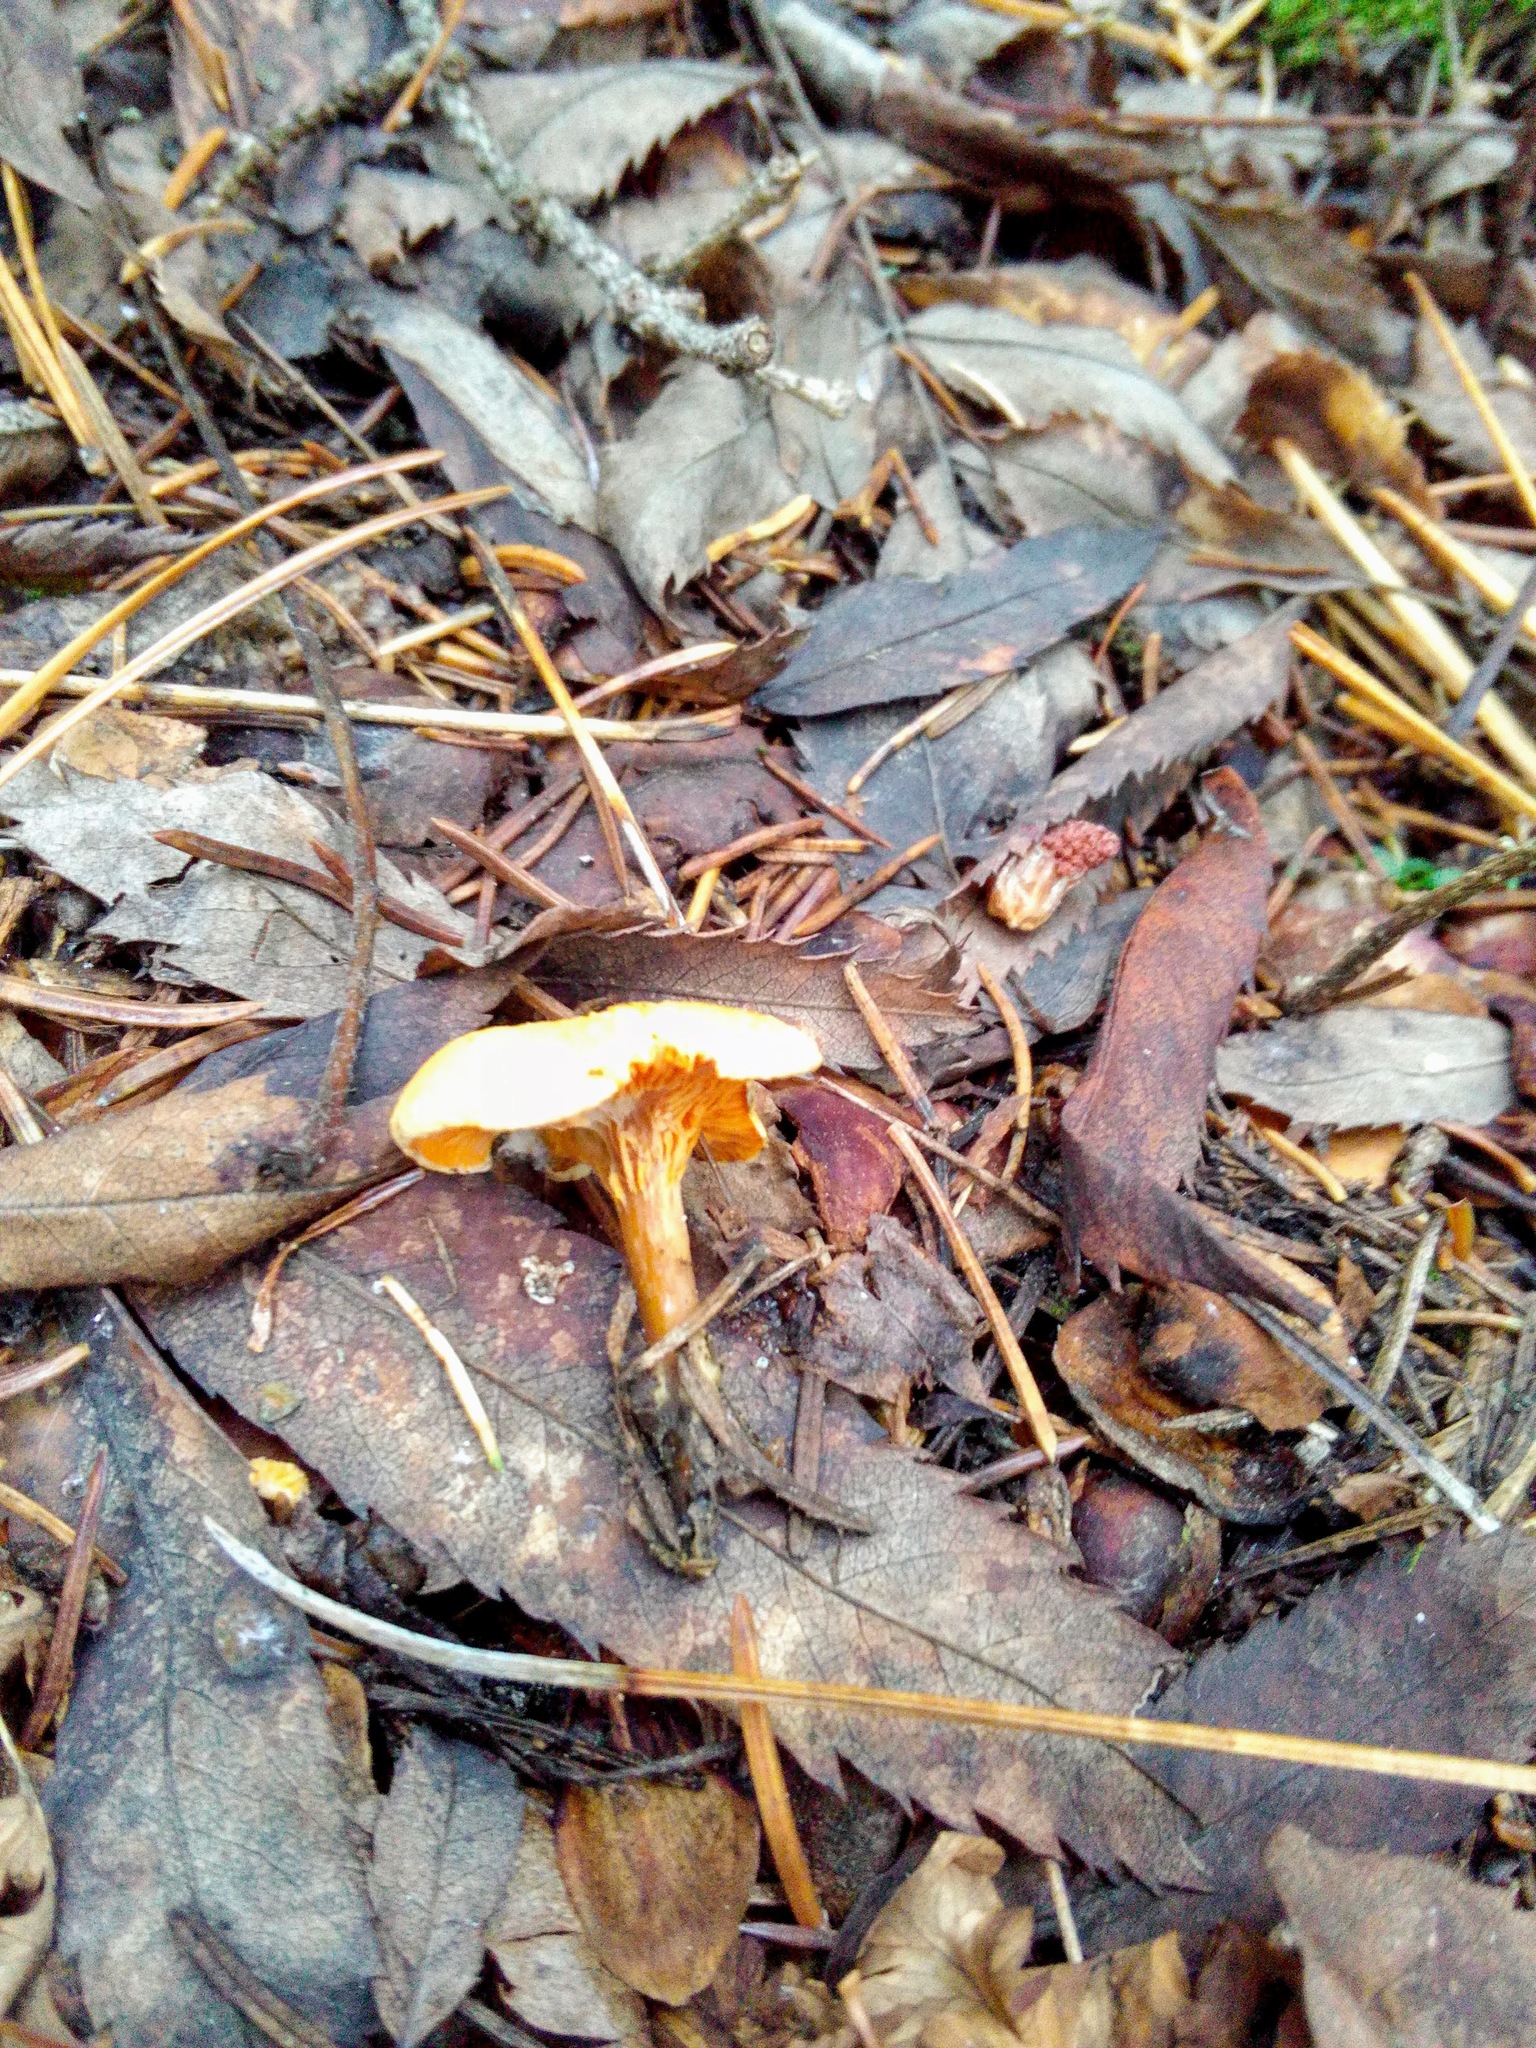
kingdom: Fungi
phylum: Basidiomycota
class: Agaricomycetes
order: Boletales
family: Hygrophoropsidaceae
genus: Hygrophoropsis
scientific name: Hygrophoropsis aurantiaca
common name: False chanterelle
